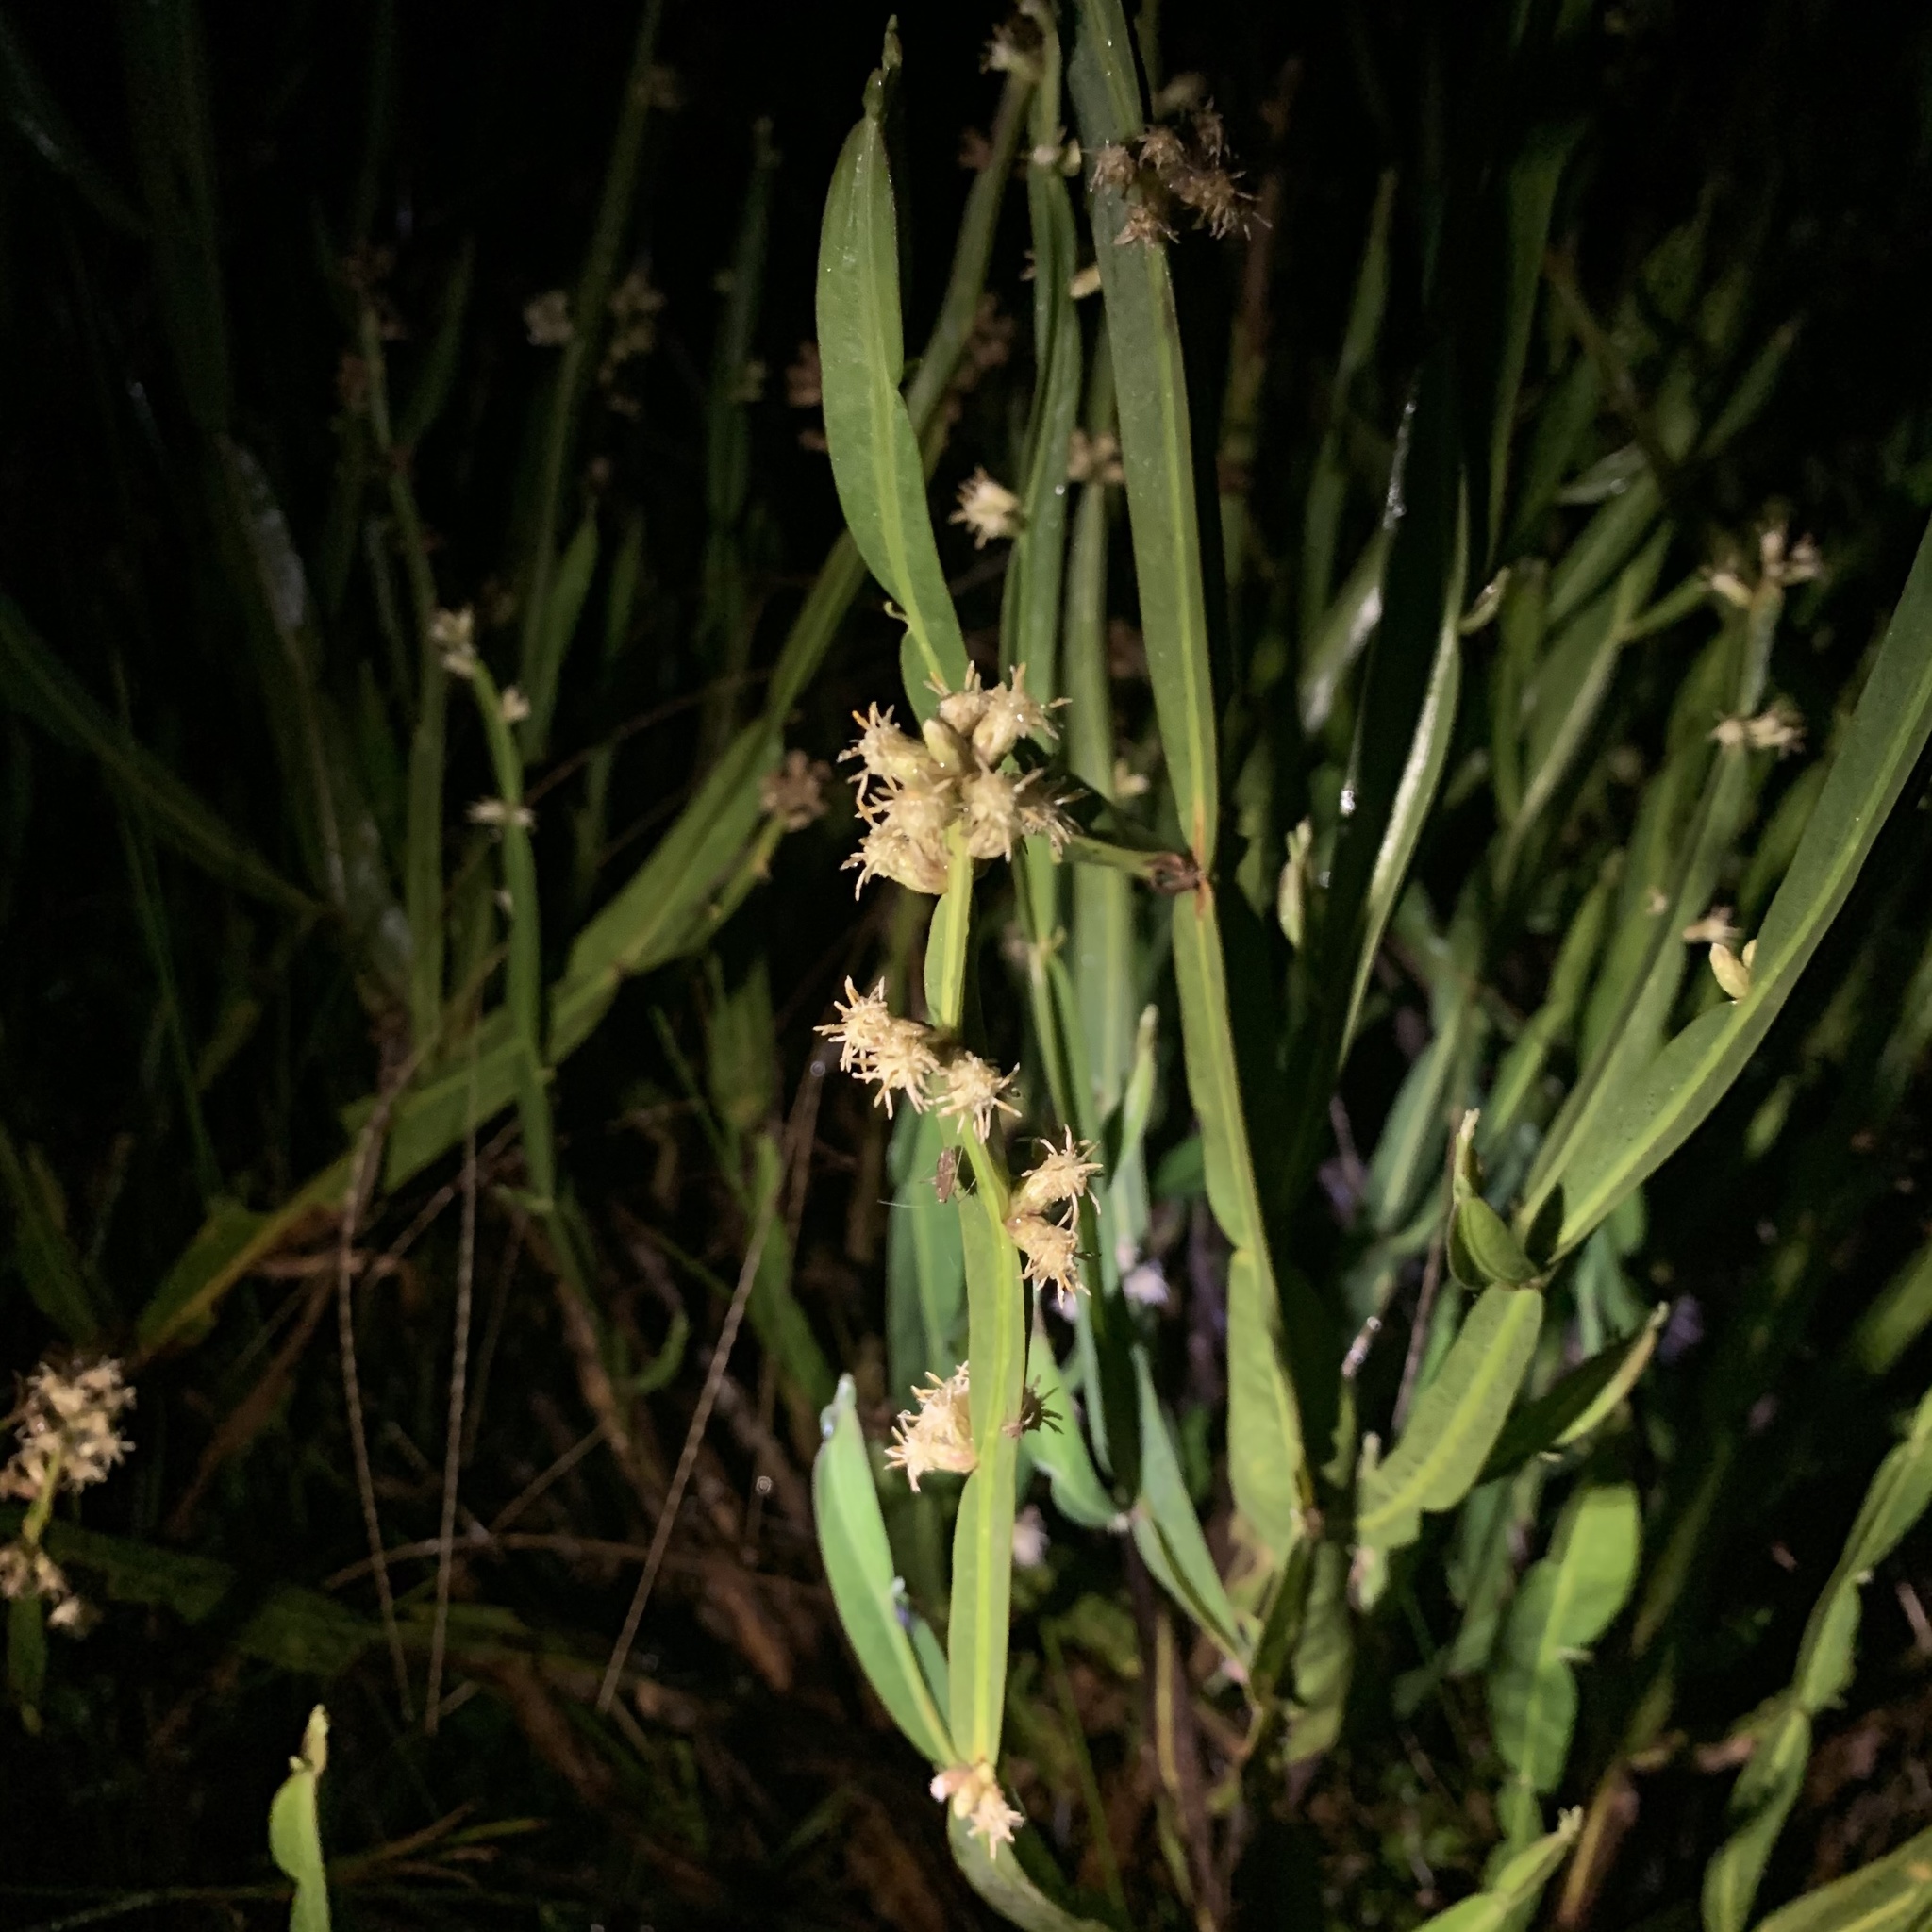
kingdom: Plantae
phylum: Tracheophyta
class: Magnoliopsida
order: Asterales
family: Asteraceae
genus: Baccharis
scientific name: Baccharis genistelloides
